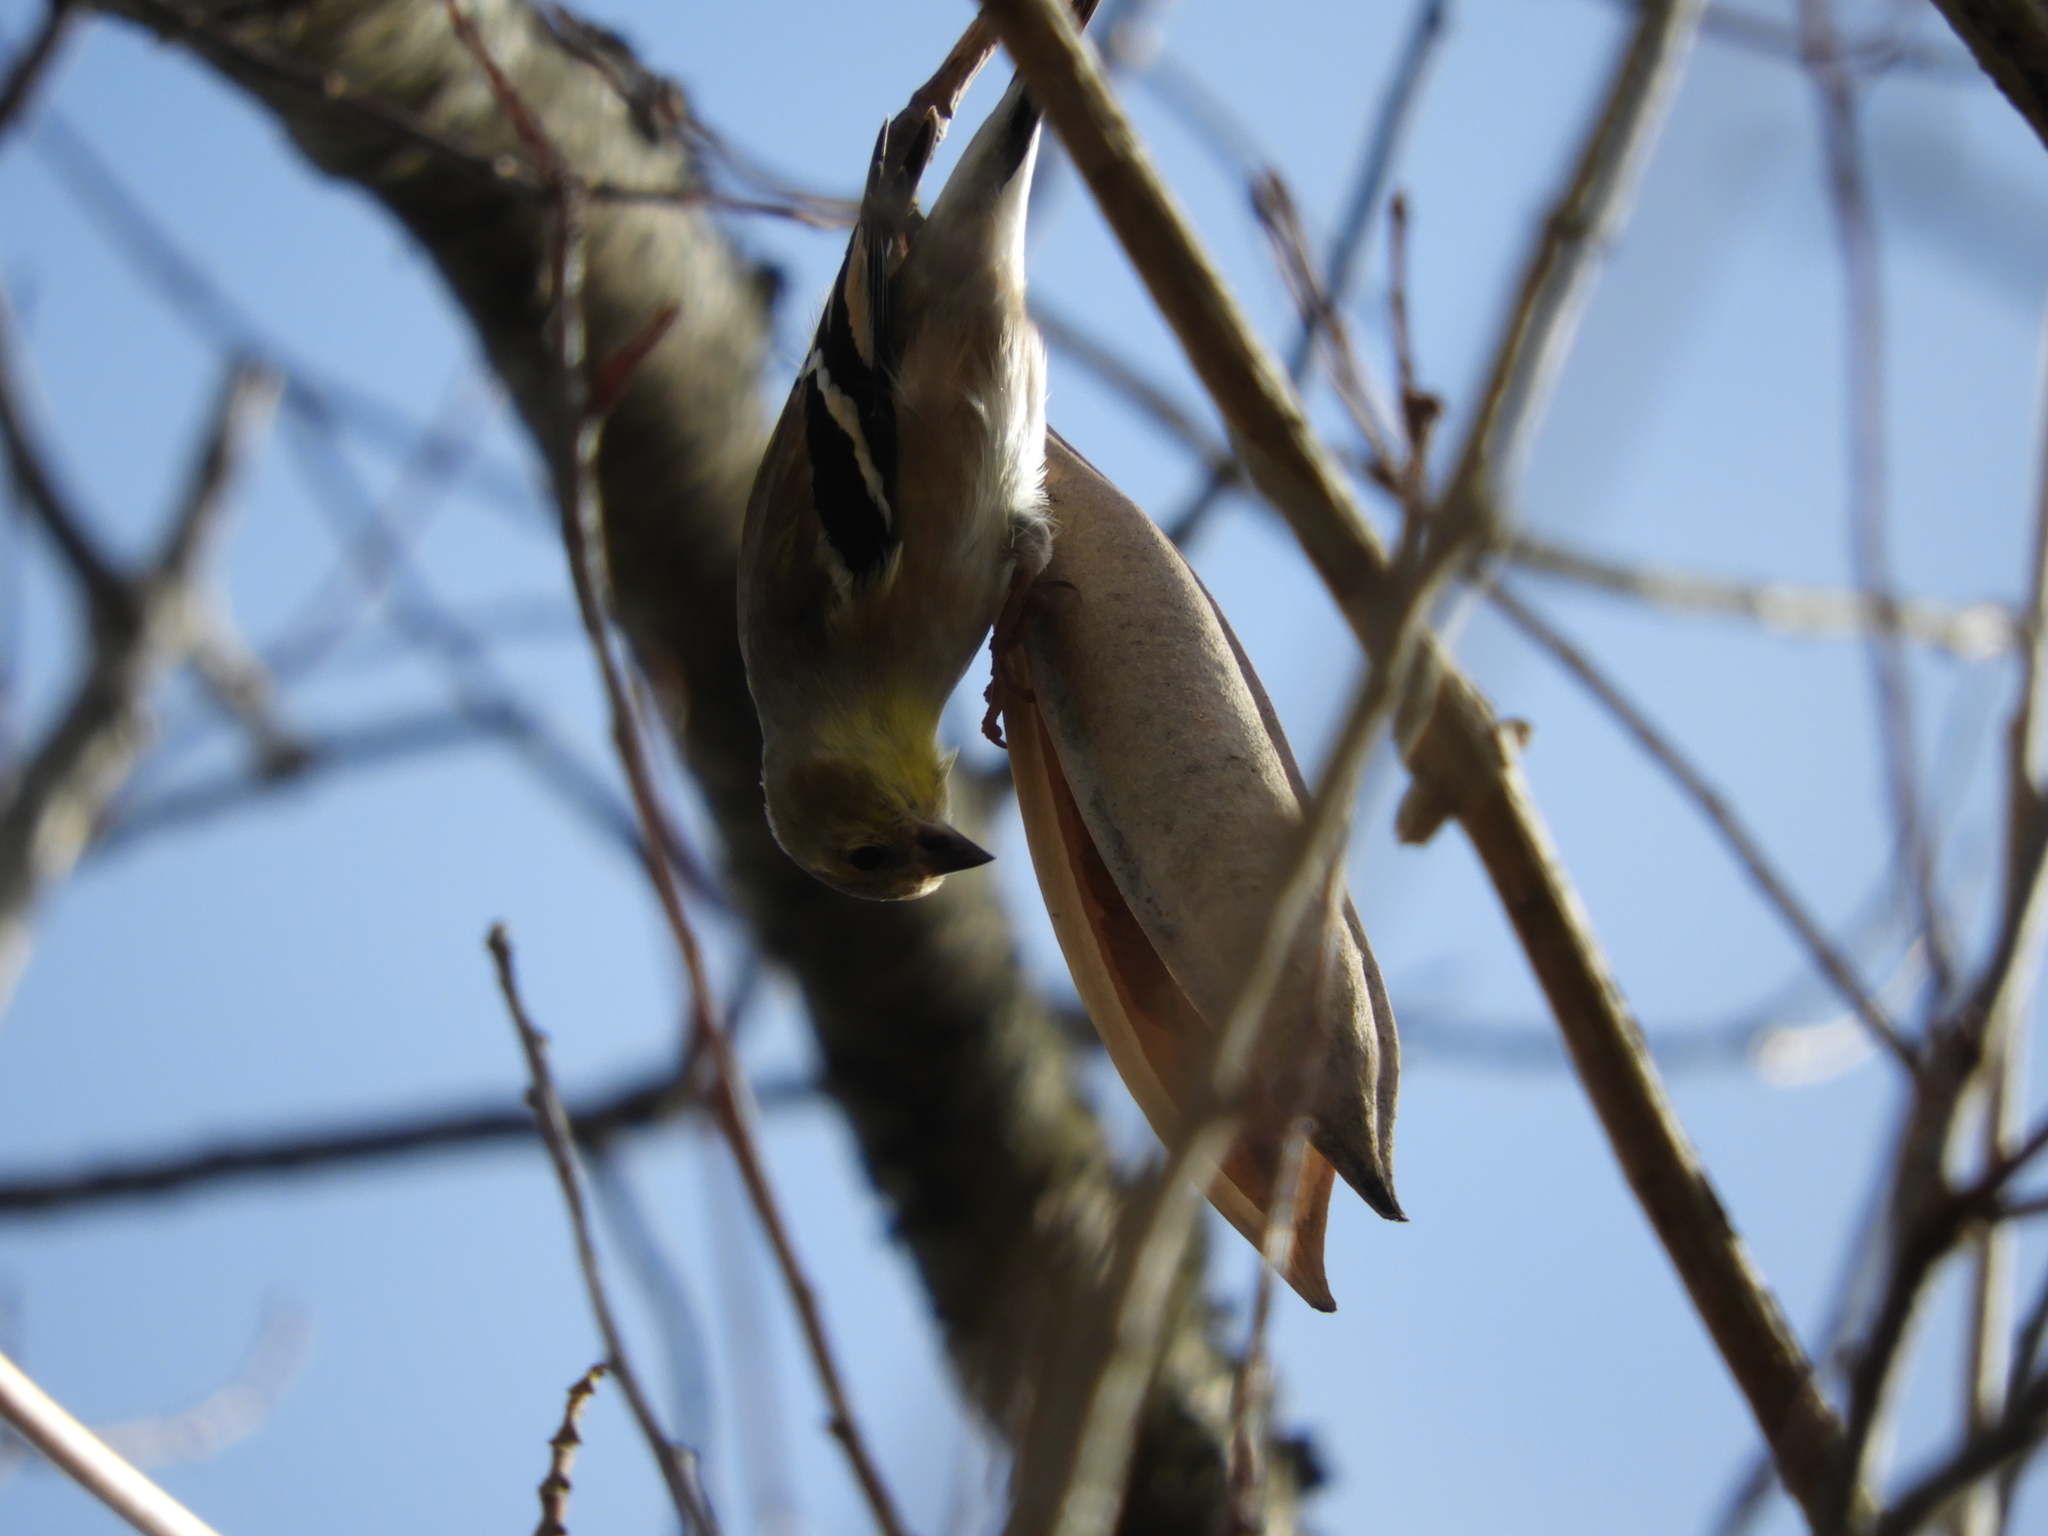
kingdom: Animalia
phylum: Chordata
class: Aves
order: Passeriformes
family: Fringillidae
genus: Spinus
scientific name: Spinus tristis
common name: American goldfinch
